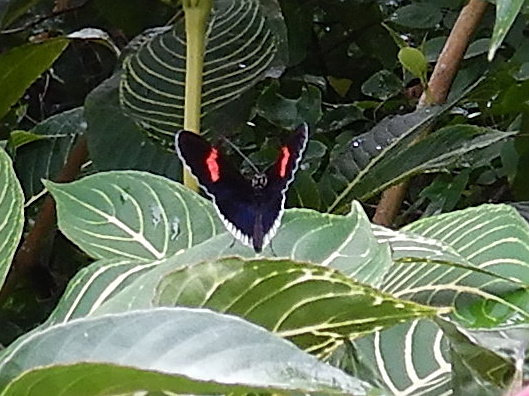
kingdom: Animalia
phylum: Arthropoda
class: Insecta
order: Lepidoptera
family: Nymphalidae
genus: Heliconius
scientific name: Heliconius erato
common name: Common patch longwing
